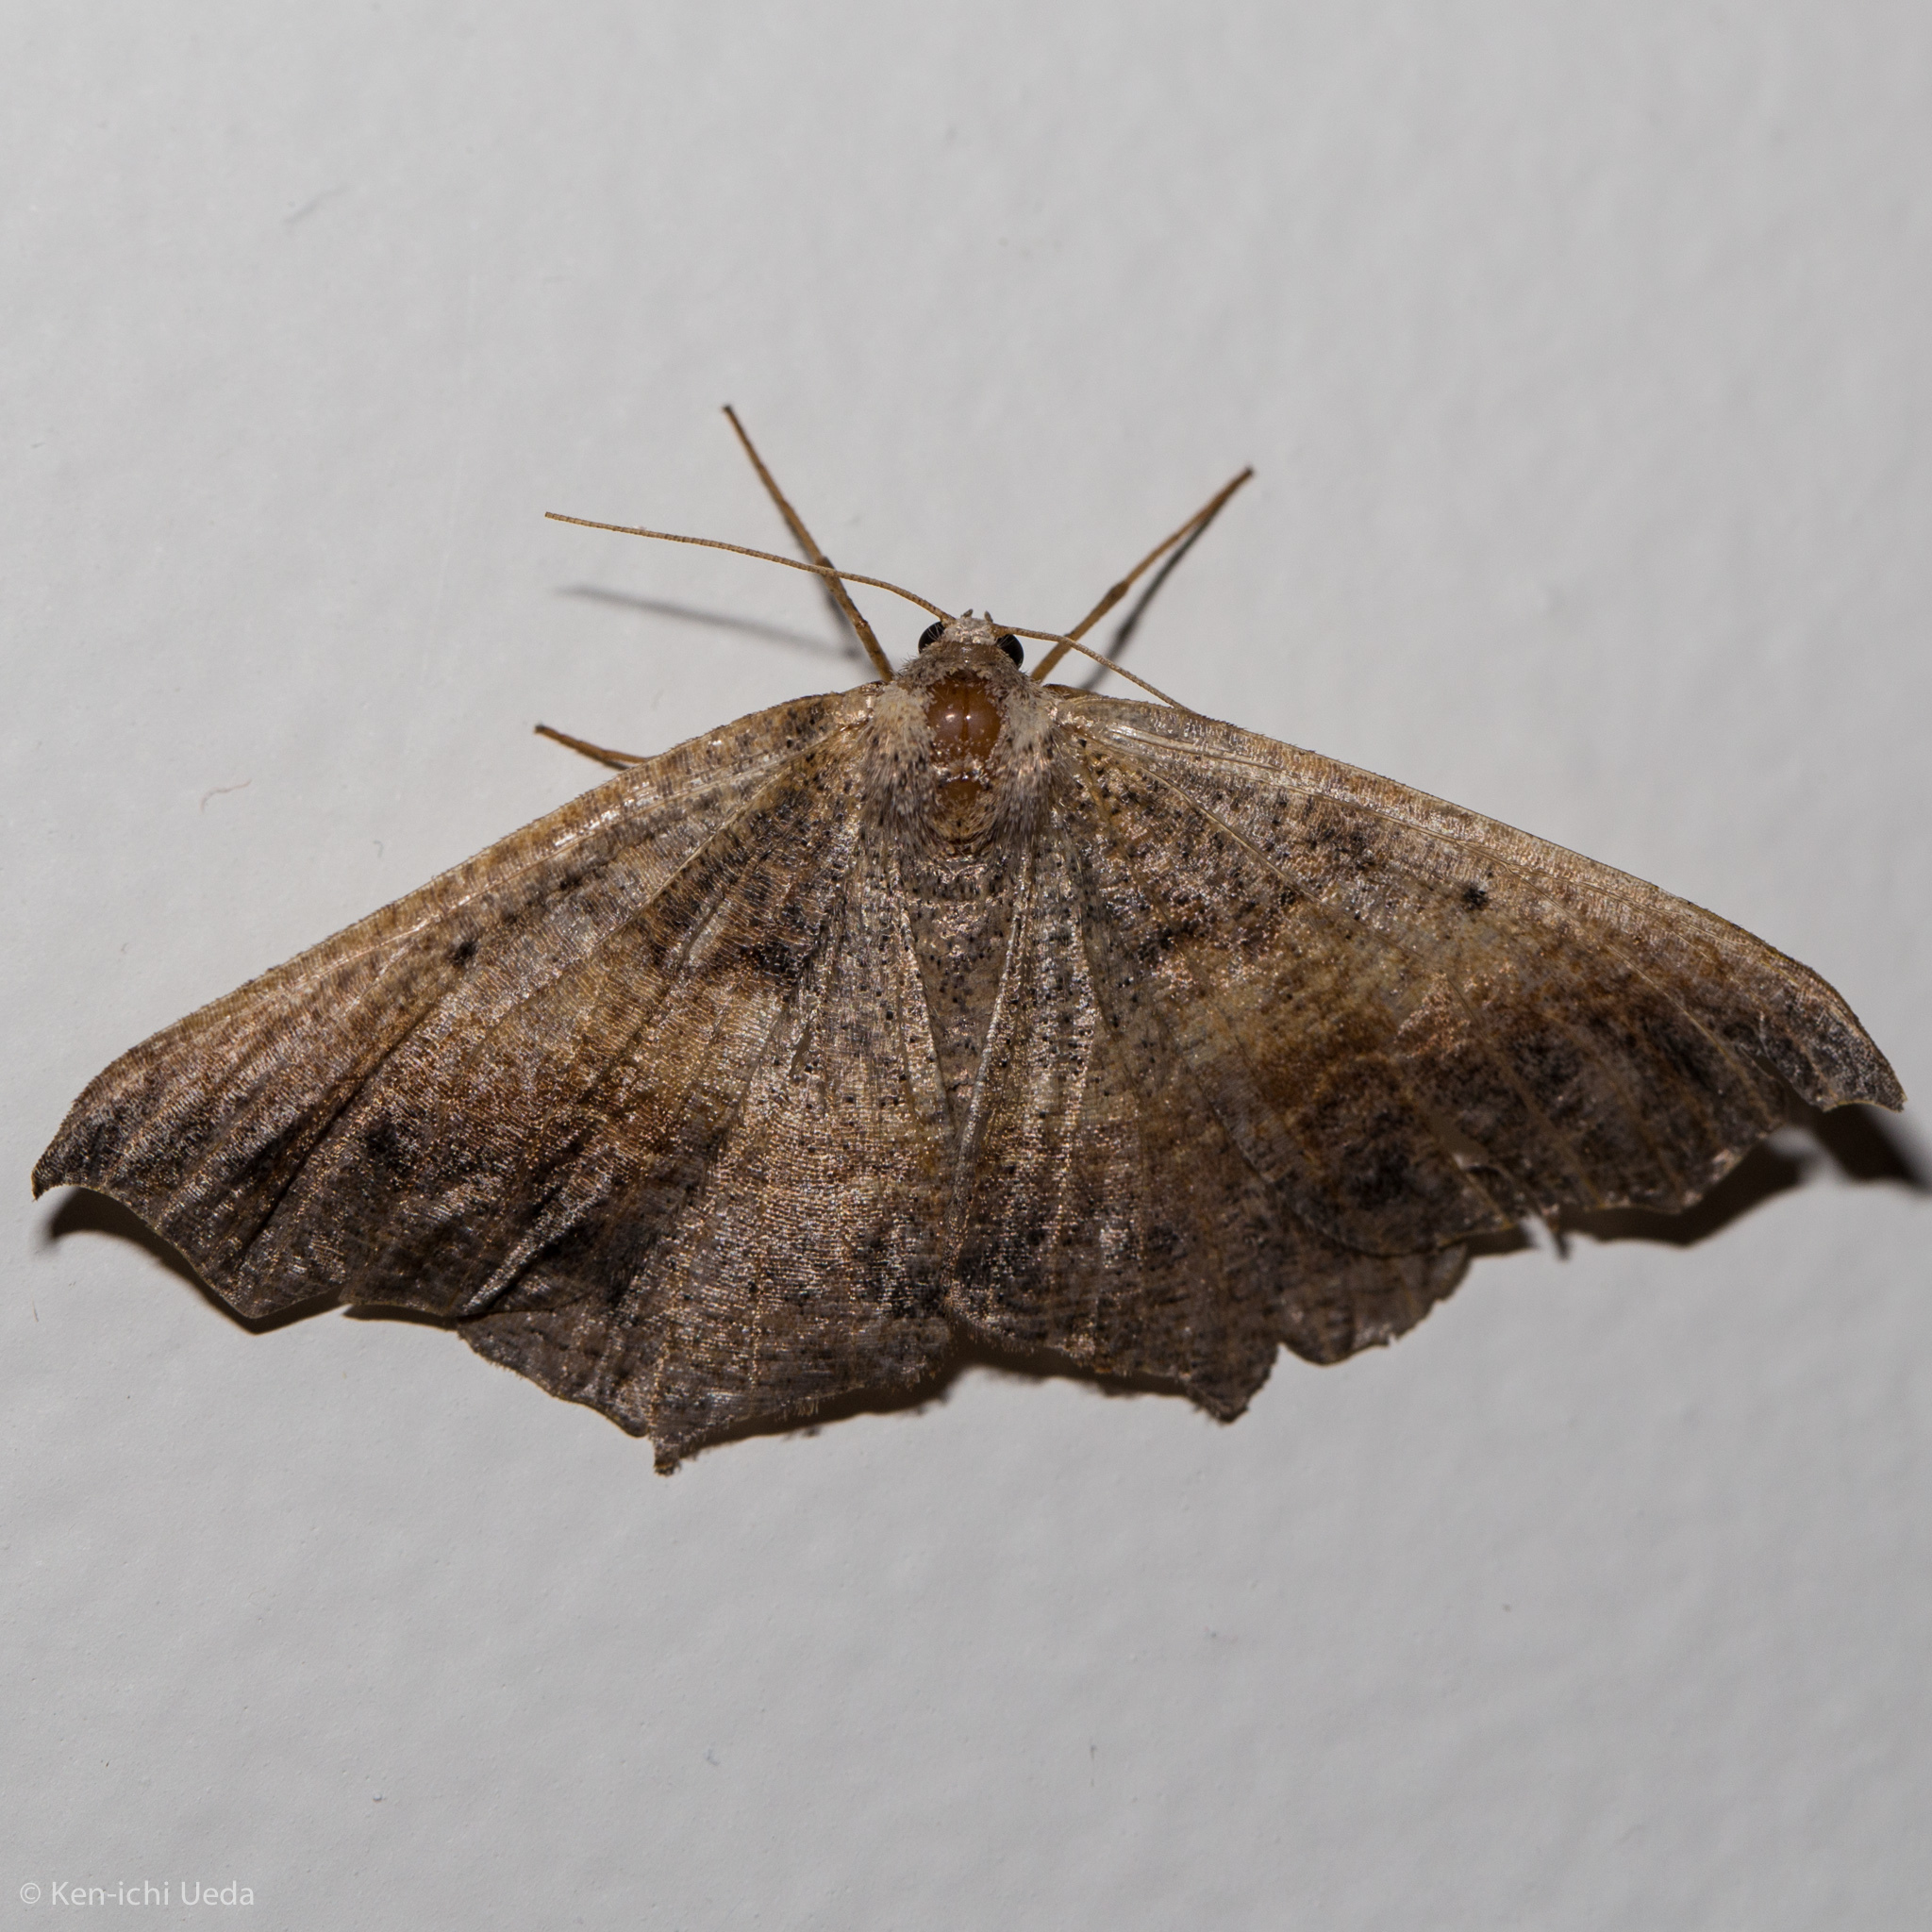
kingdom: Animalia
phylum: Arthropoda
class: Insecta
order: Lepidoptera
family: Geometridae
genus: Prochoerodes
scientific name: Prochoerodes forficaria
